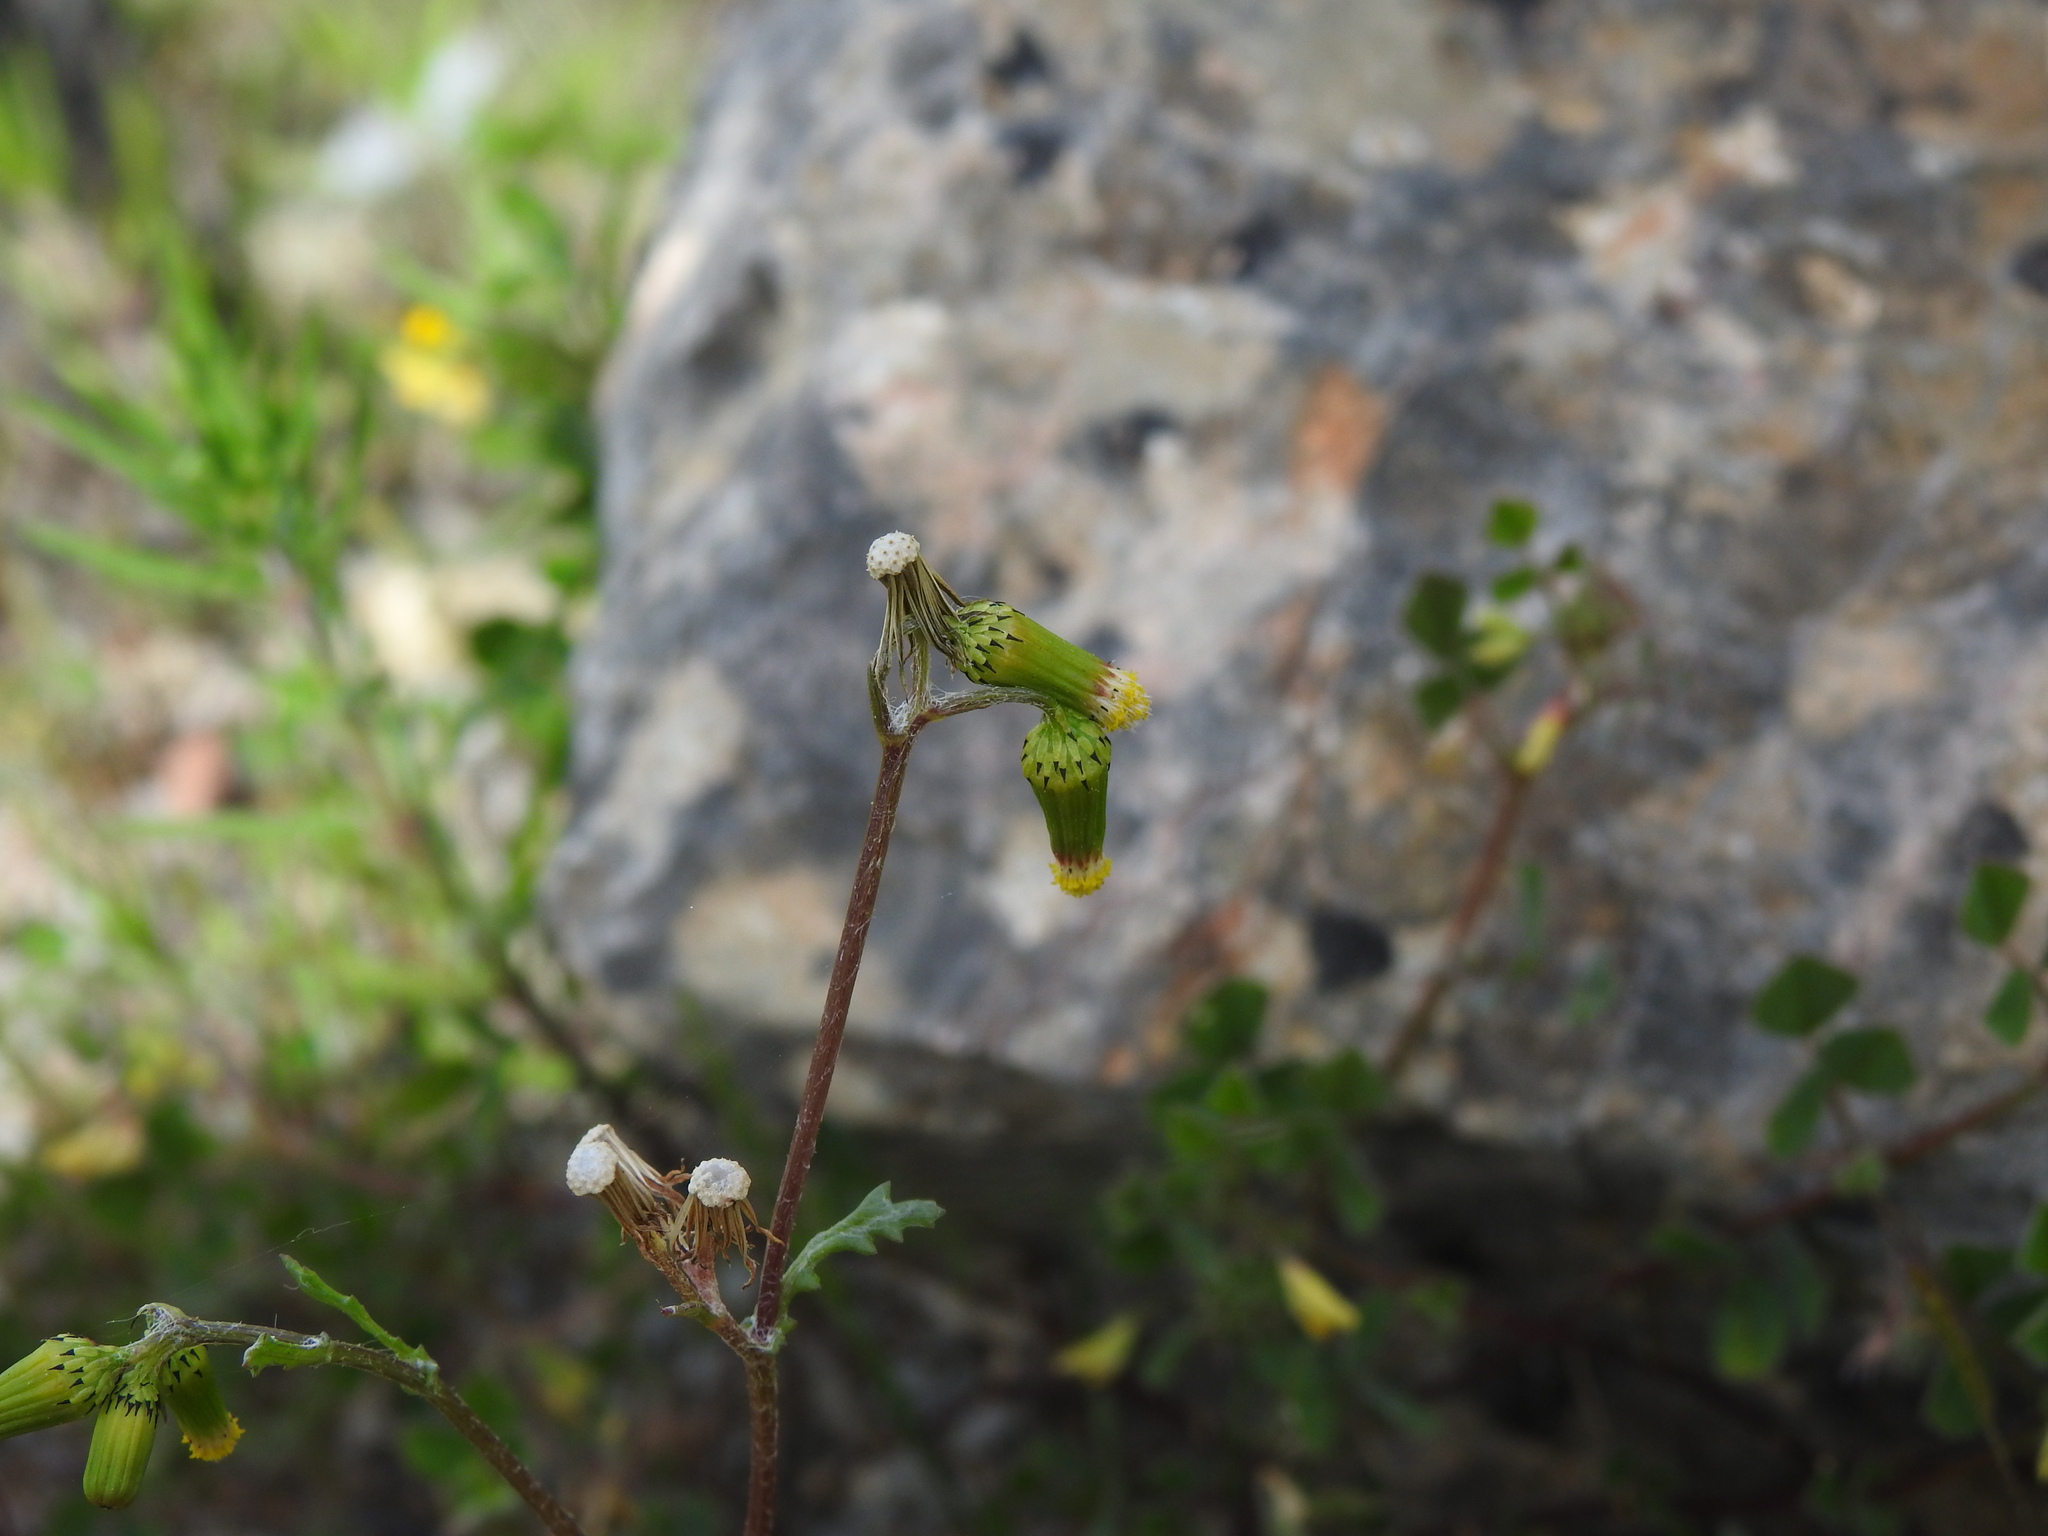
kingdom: Plantae
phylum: Tracheophyta
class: Magnoliopsida
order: Asterales
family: Asteraceae
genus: Senecio
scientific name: Senecio vulgaris
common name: Old-man-in-the-spring
